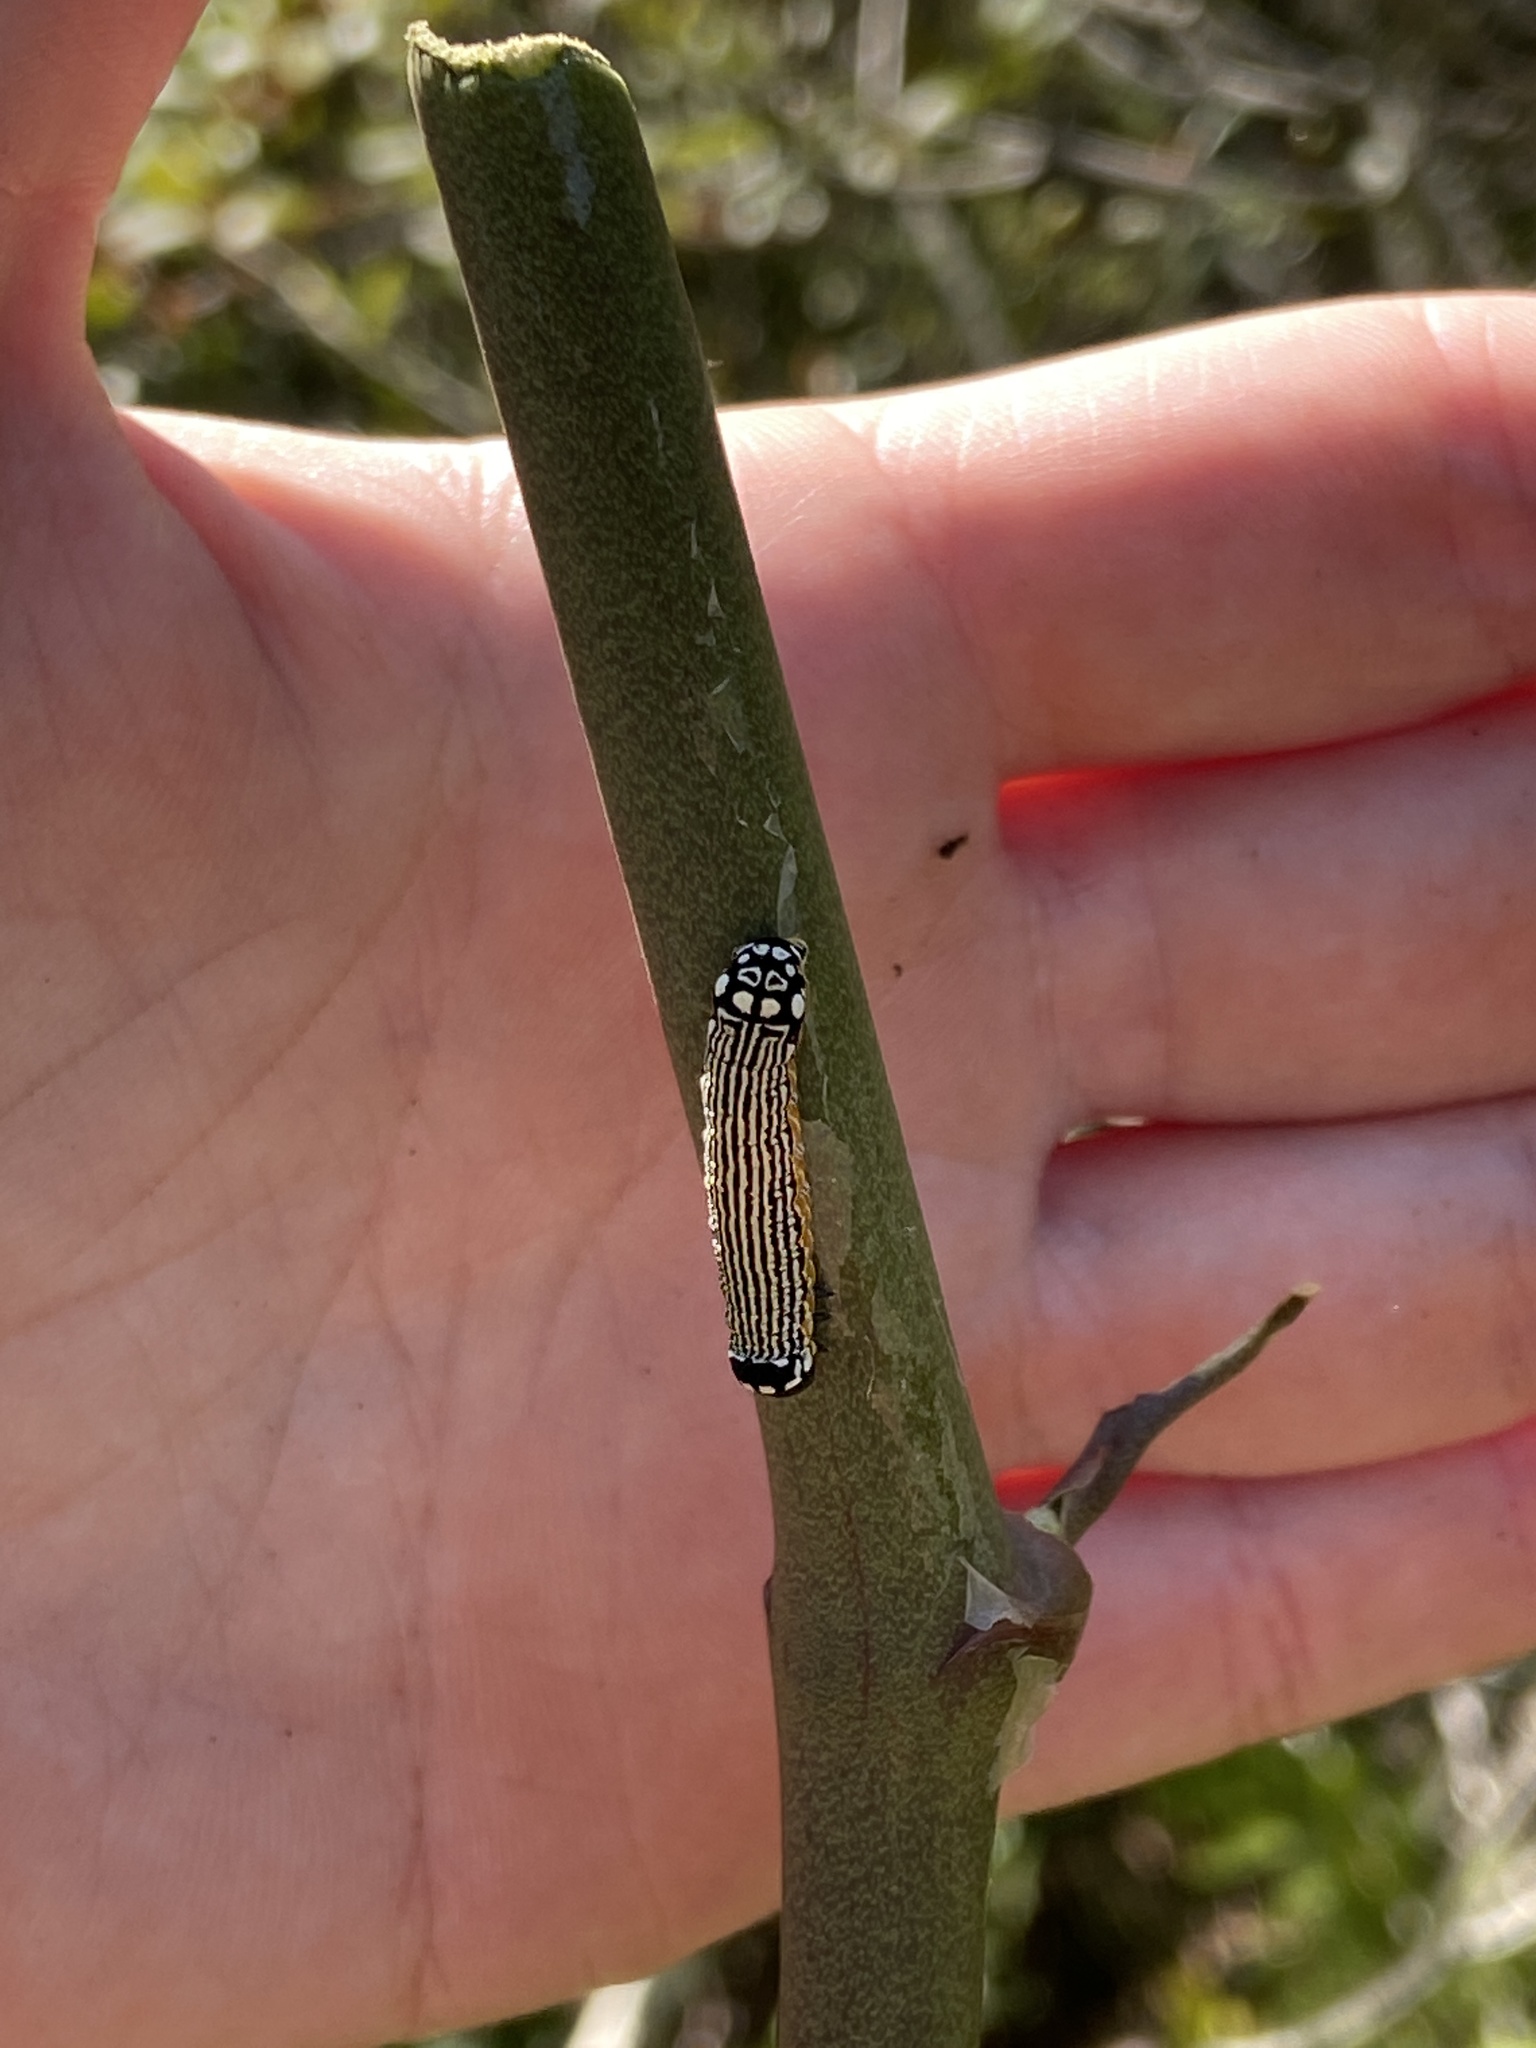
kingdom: Animalia
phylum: Arthropoda
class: Insecta
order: Lepidoptera
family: Noctuidae
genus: Phosphila
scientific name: Phosphila turbulenta
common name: Turbulent phosphila moth
